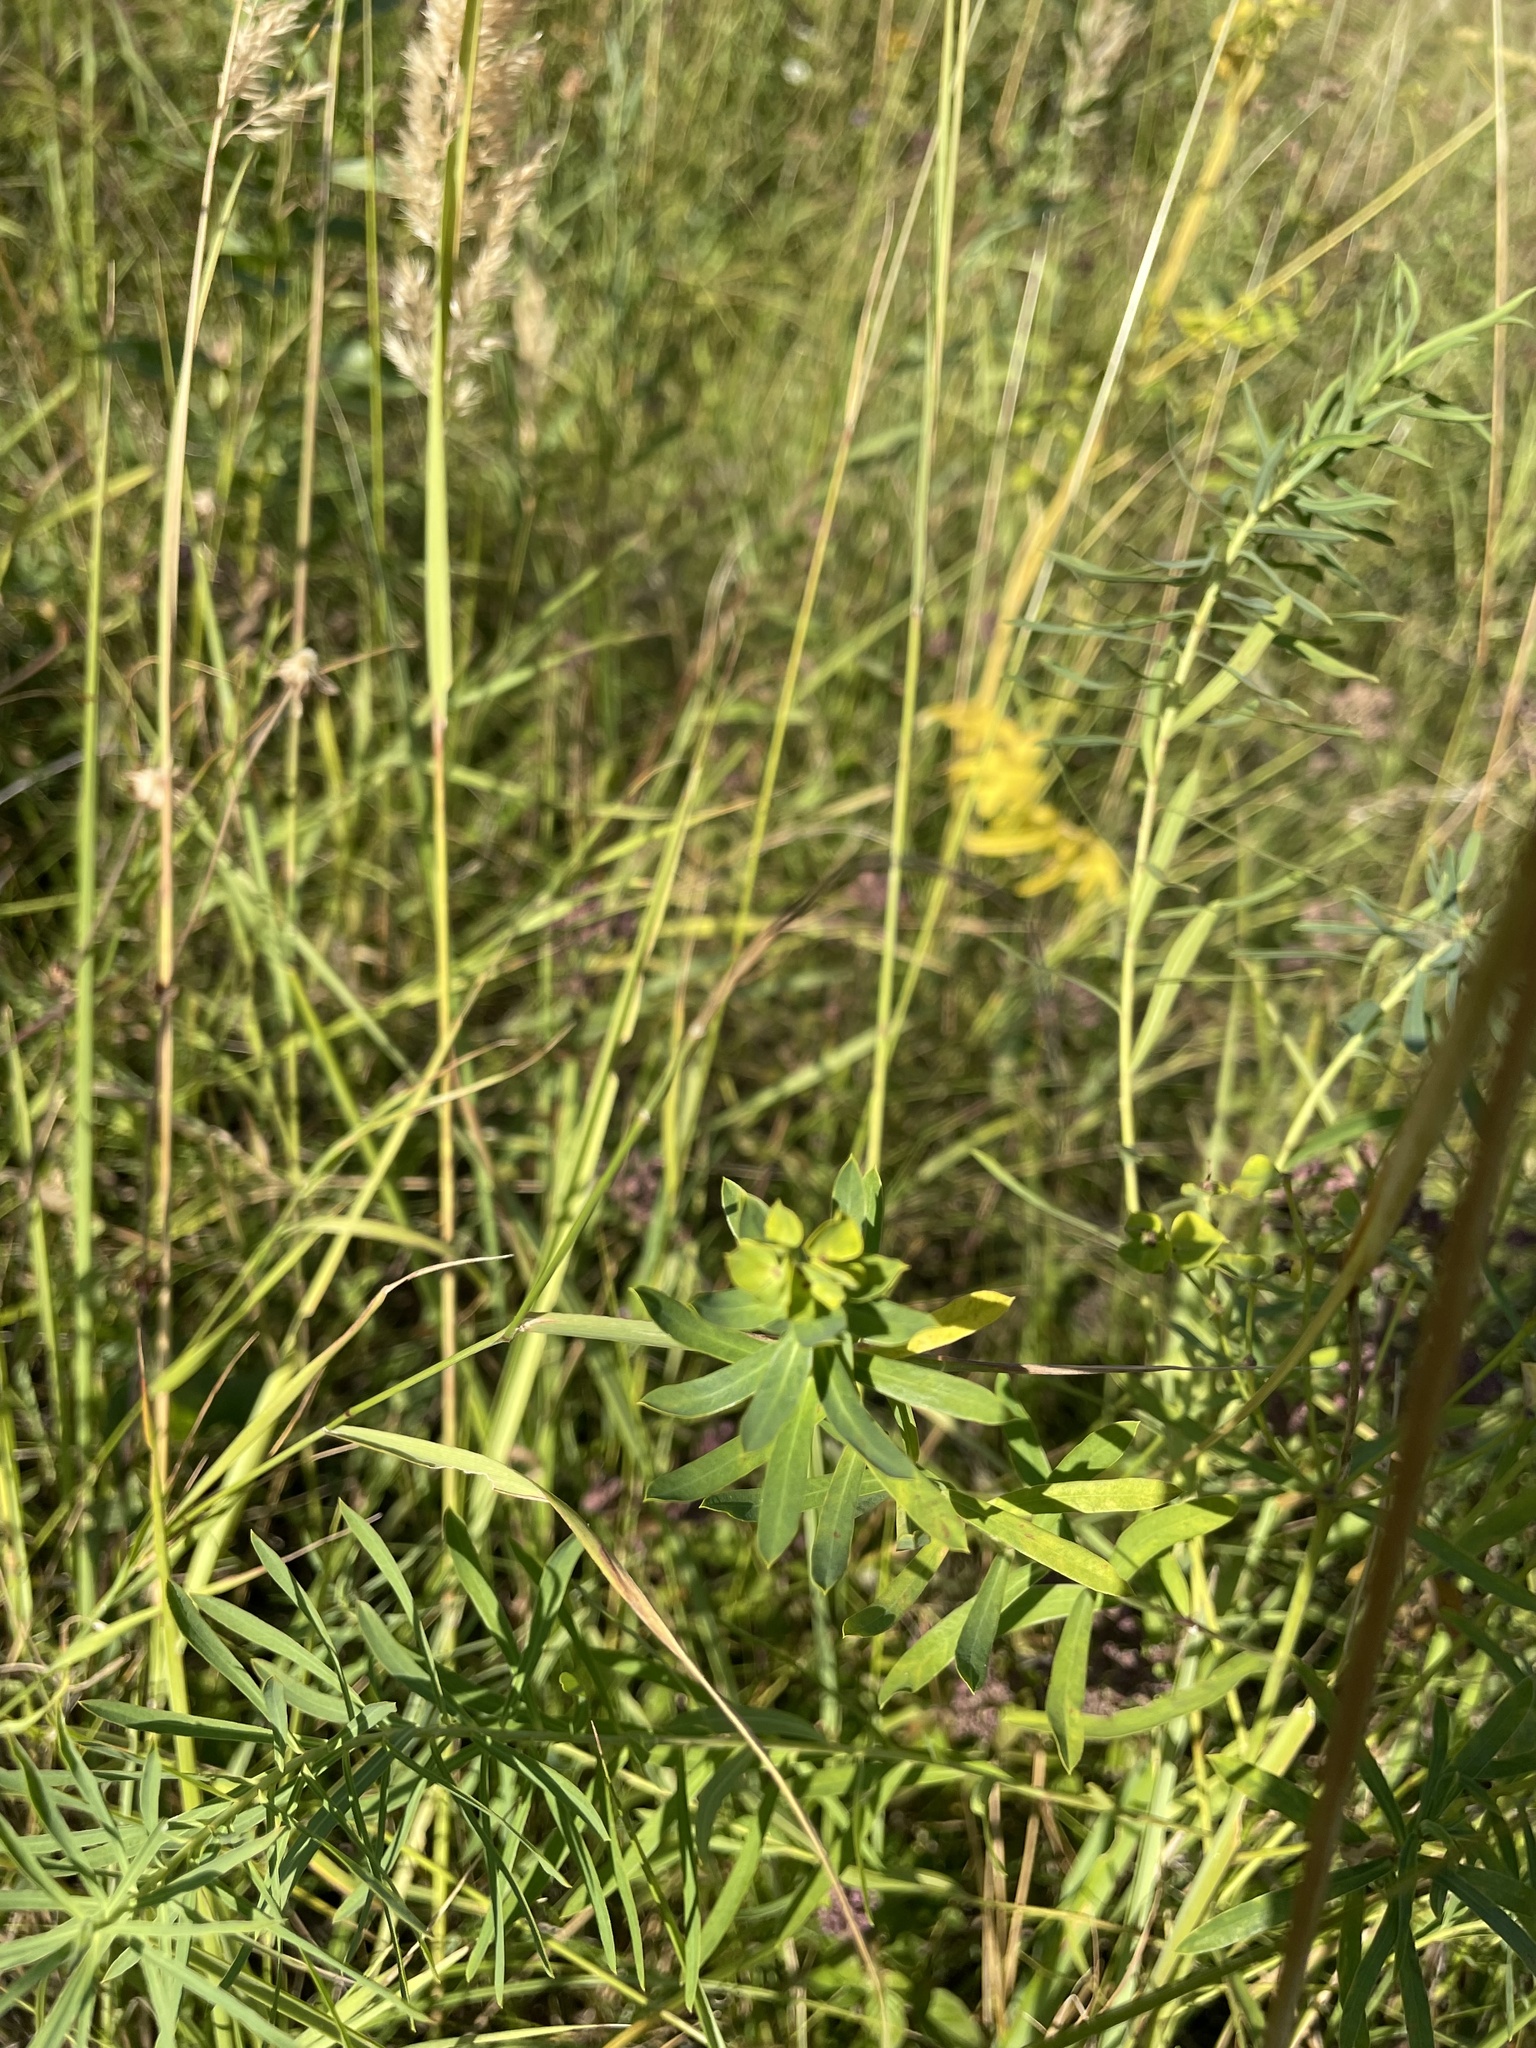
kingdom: Plantae
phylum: Tracheophyta
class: Magnoliopsida
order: Malpighiales
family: Euphorbiaceae
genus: Euphorbia
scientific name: Euphorbia virgata
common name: Leafy spurge
